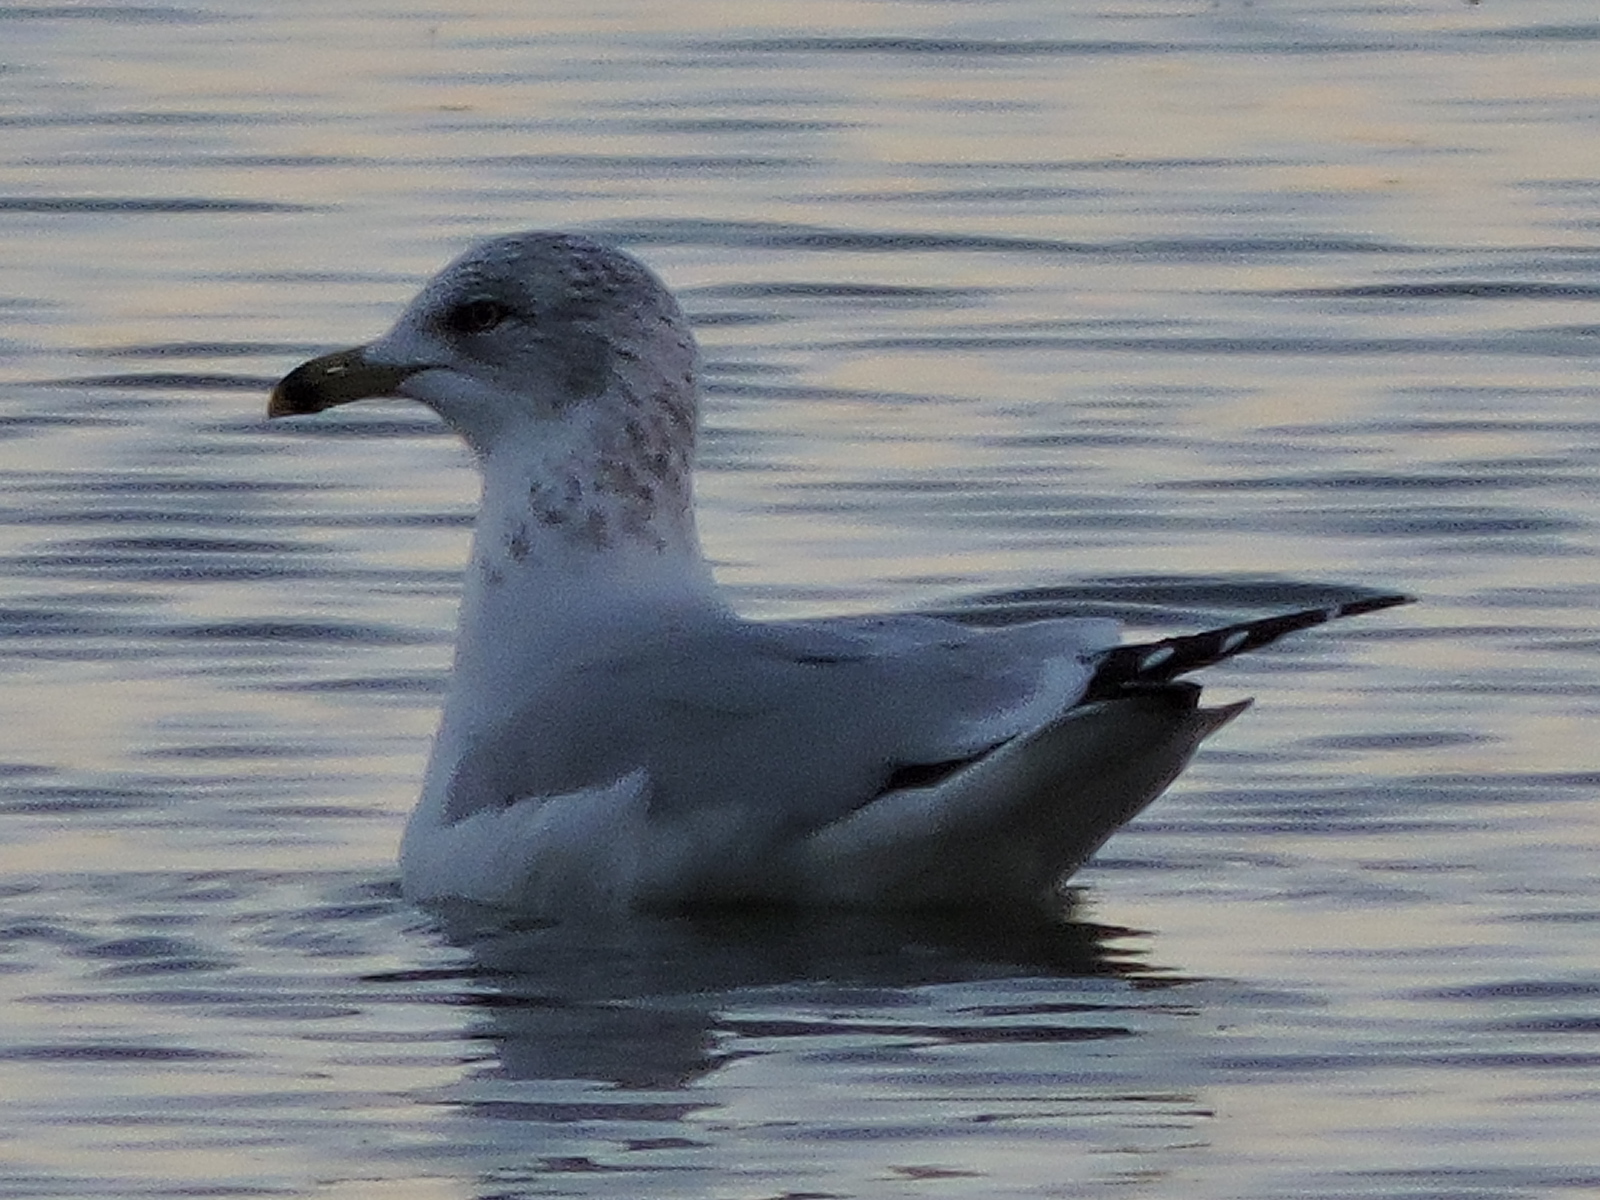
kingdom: Animalia
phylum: Chordata
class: Aves
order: Charadriiformes
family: Laridae
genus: Larus
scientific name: Larus delawarensis
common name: Ring-billed gull
